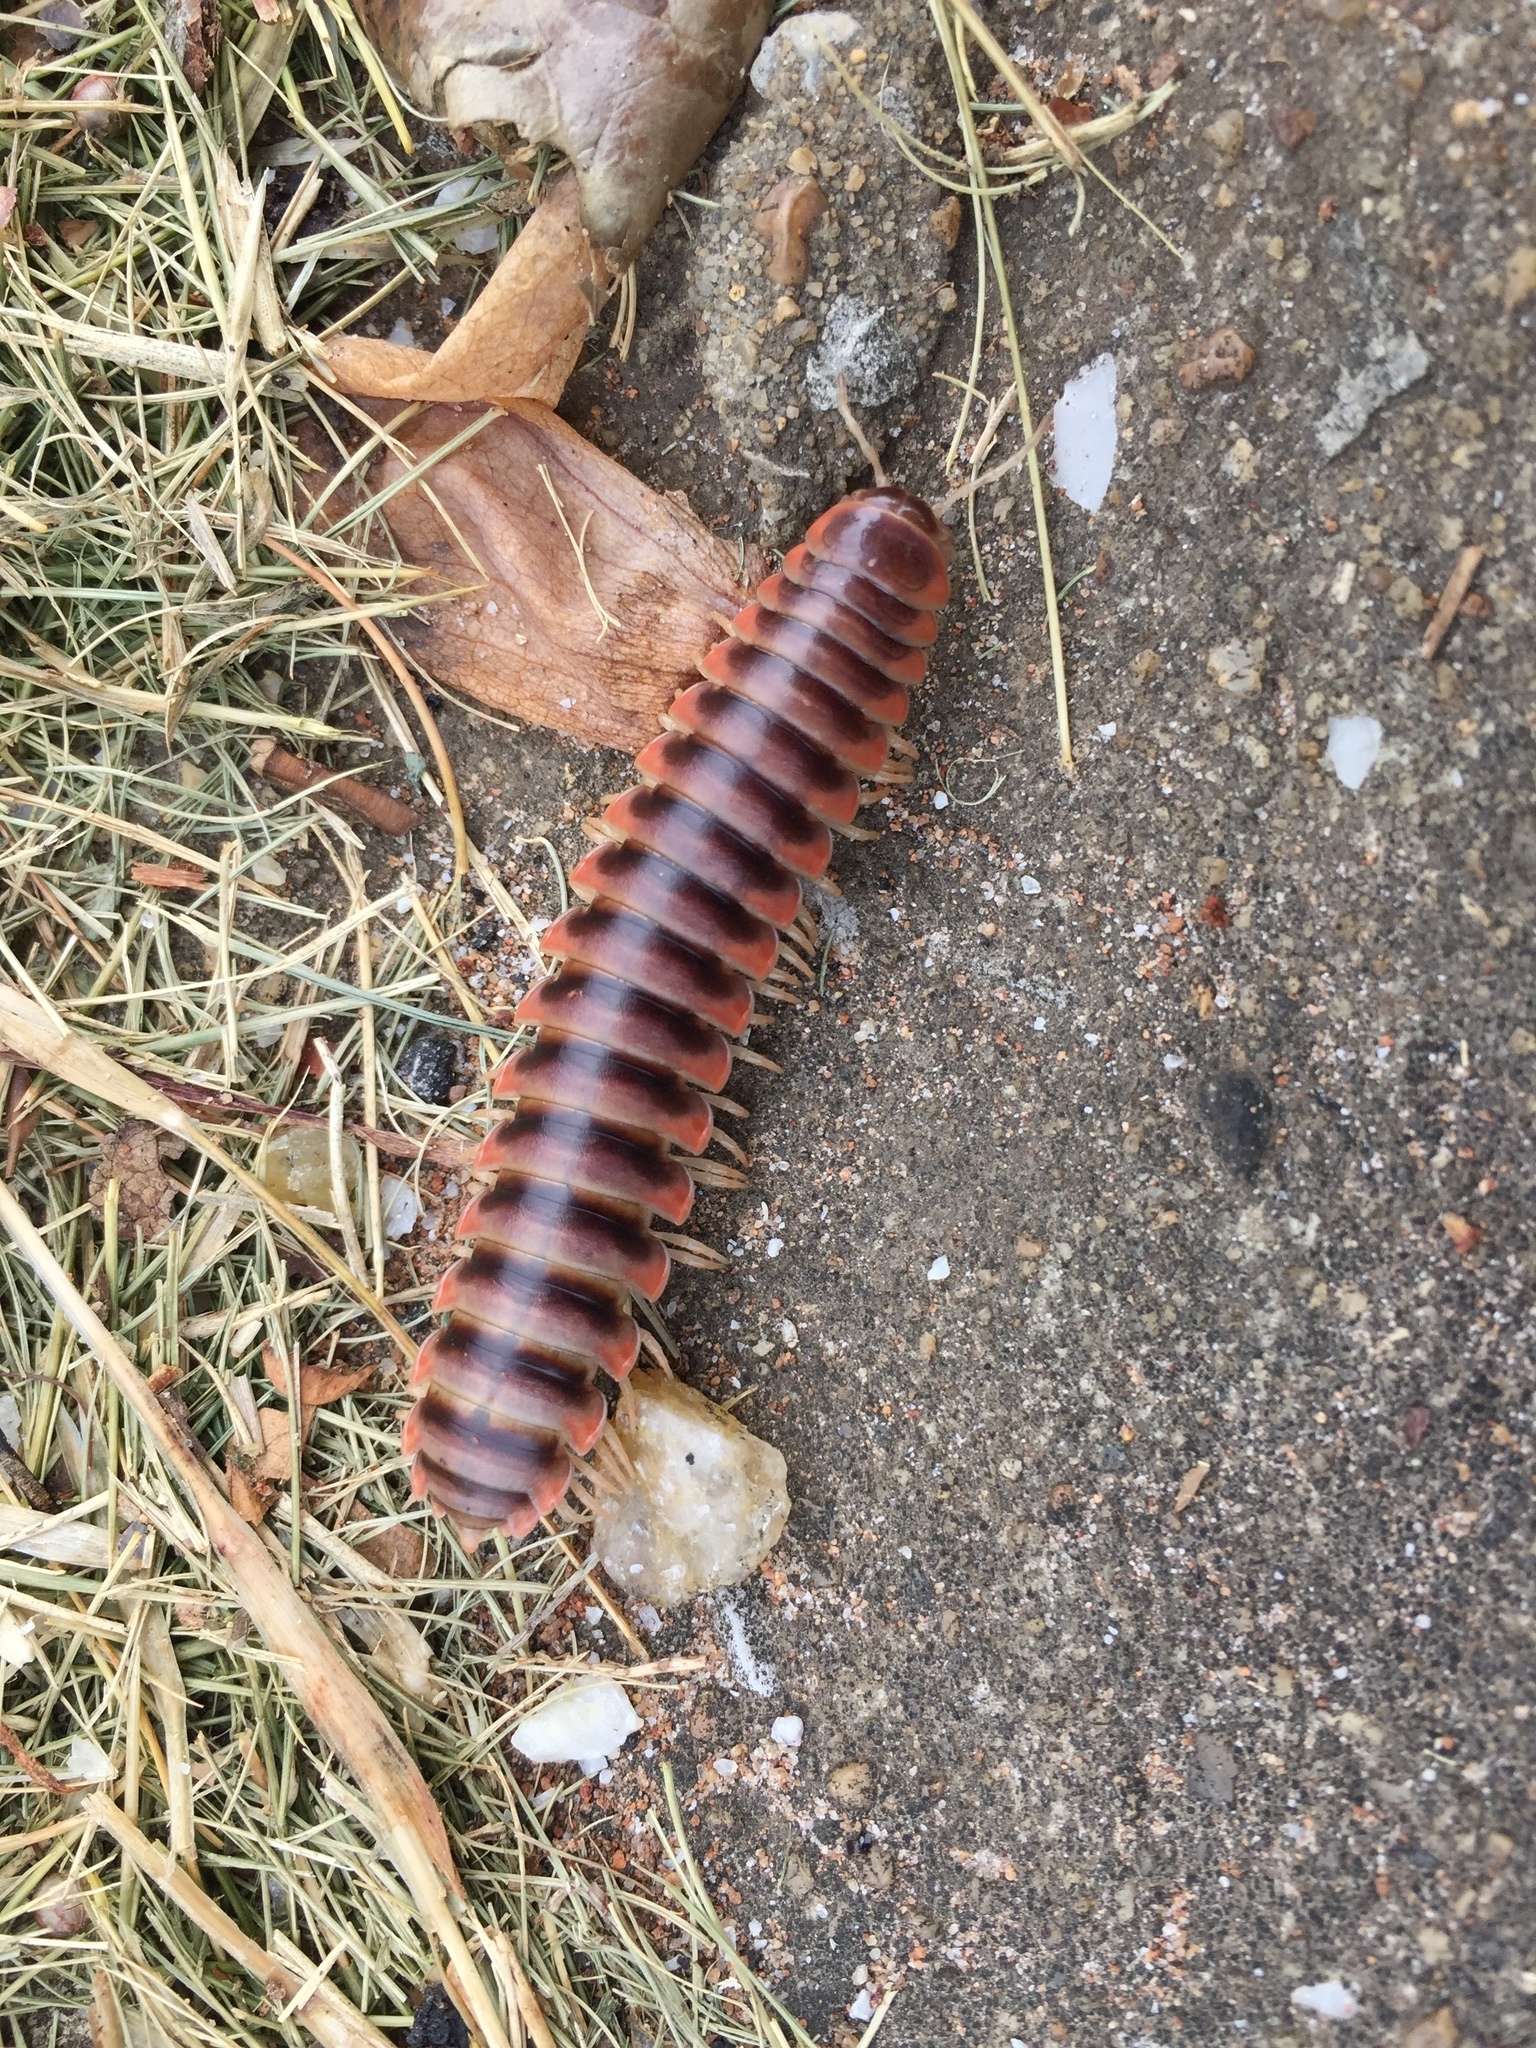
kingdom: Animalia
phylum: Arthropoda
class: Diplopoda
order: Polydesmida
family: Xystodesmidae
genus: Brachoria
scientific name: Brachoria ochra
